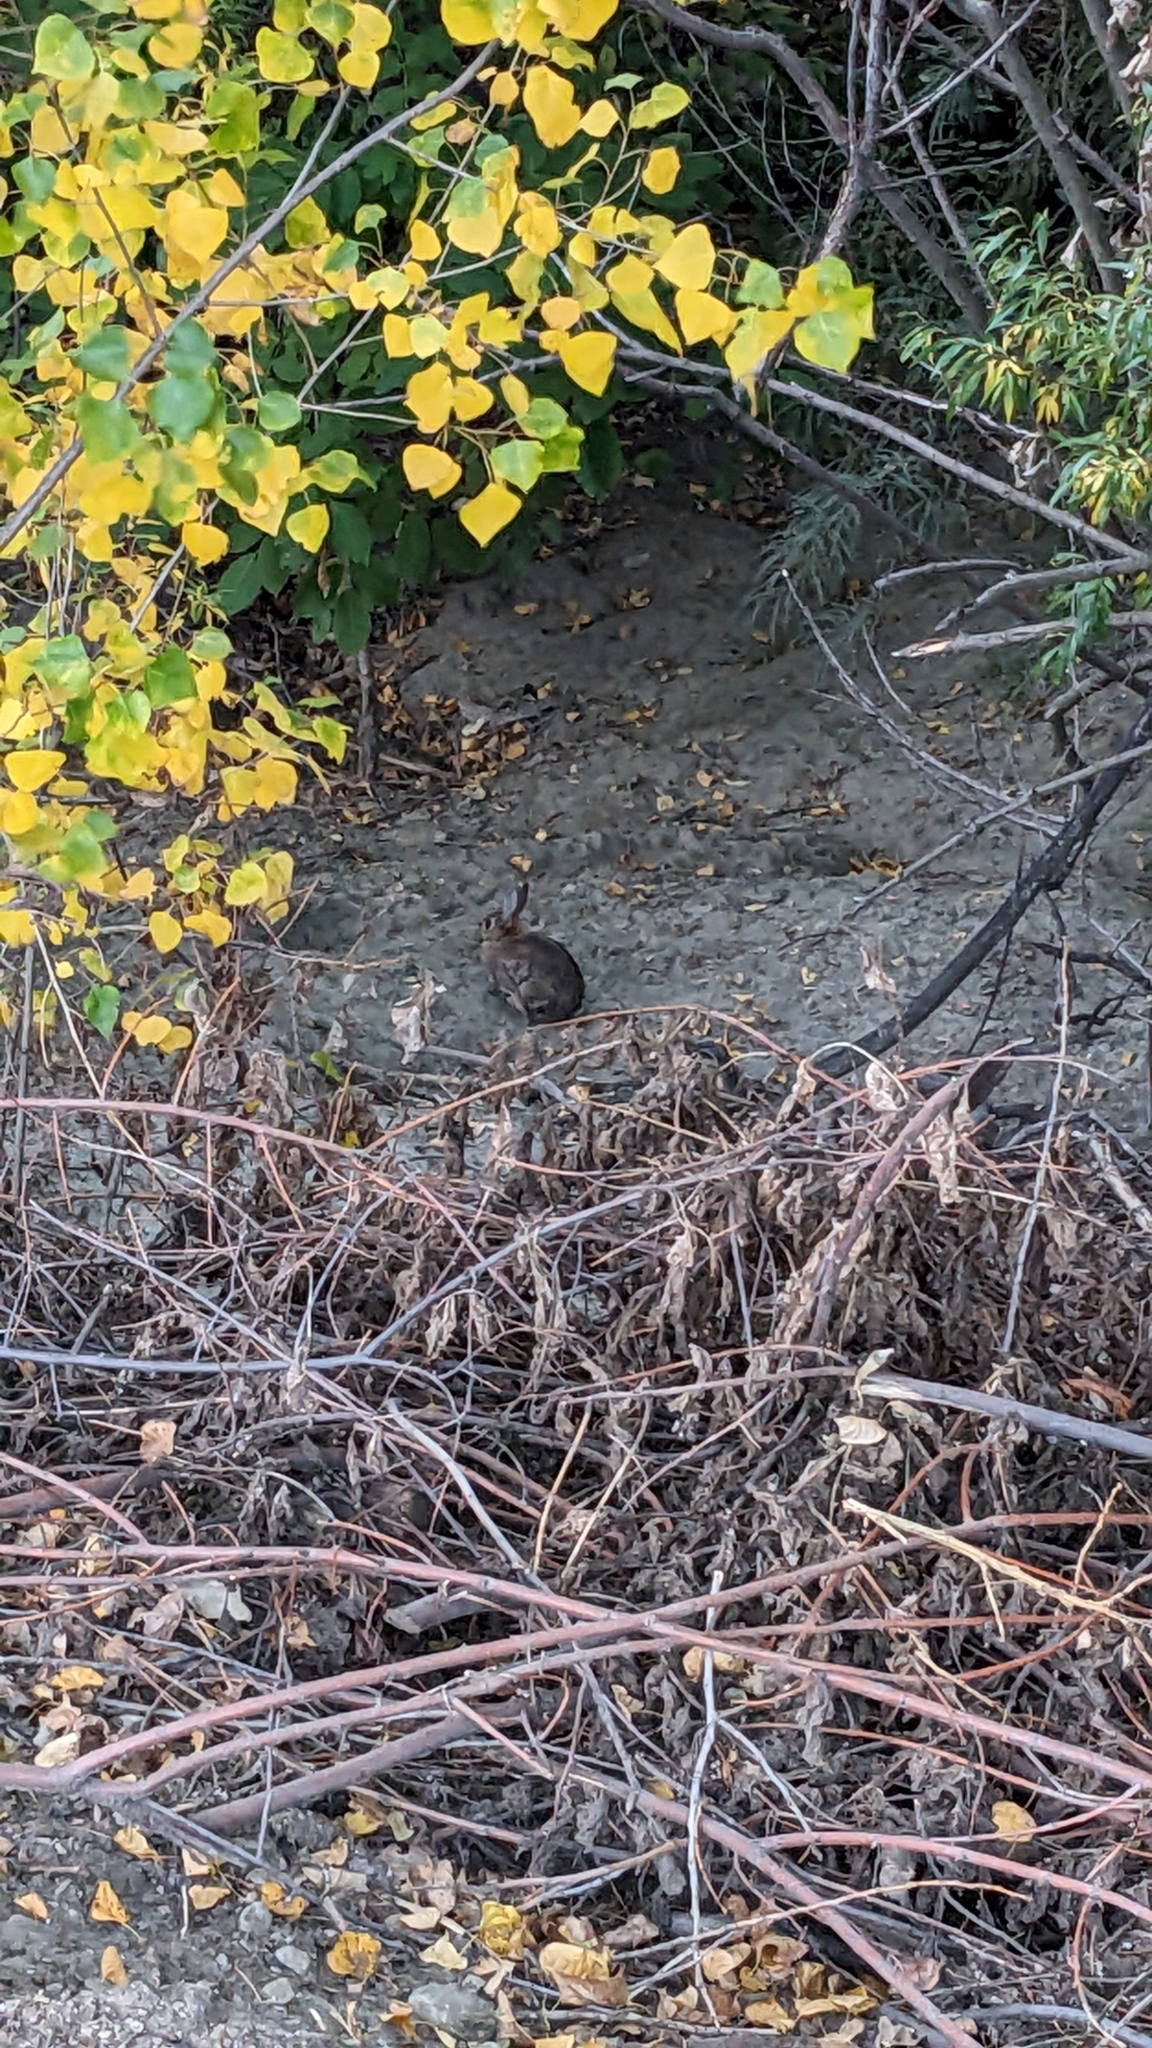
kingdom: Animalia
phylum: Chordata
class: Mammalia
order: Lagomorpha
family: Leporidae
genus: Oryctolagus
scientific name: Oryctolagus cuniculus
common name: European rabbit
